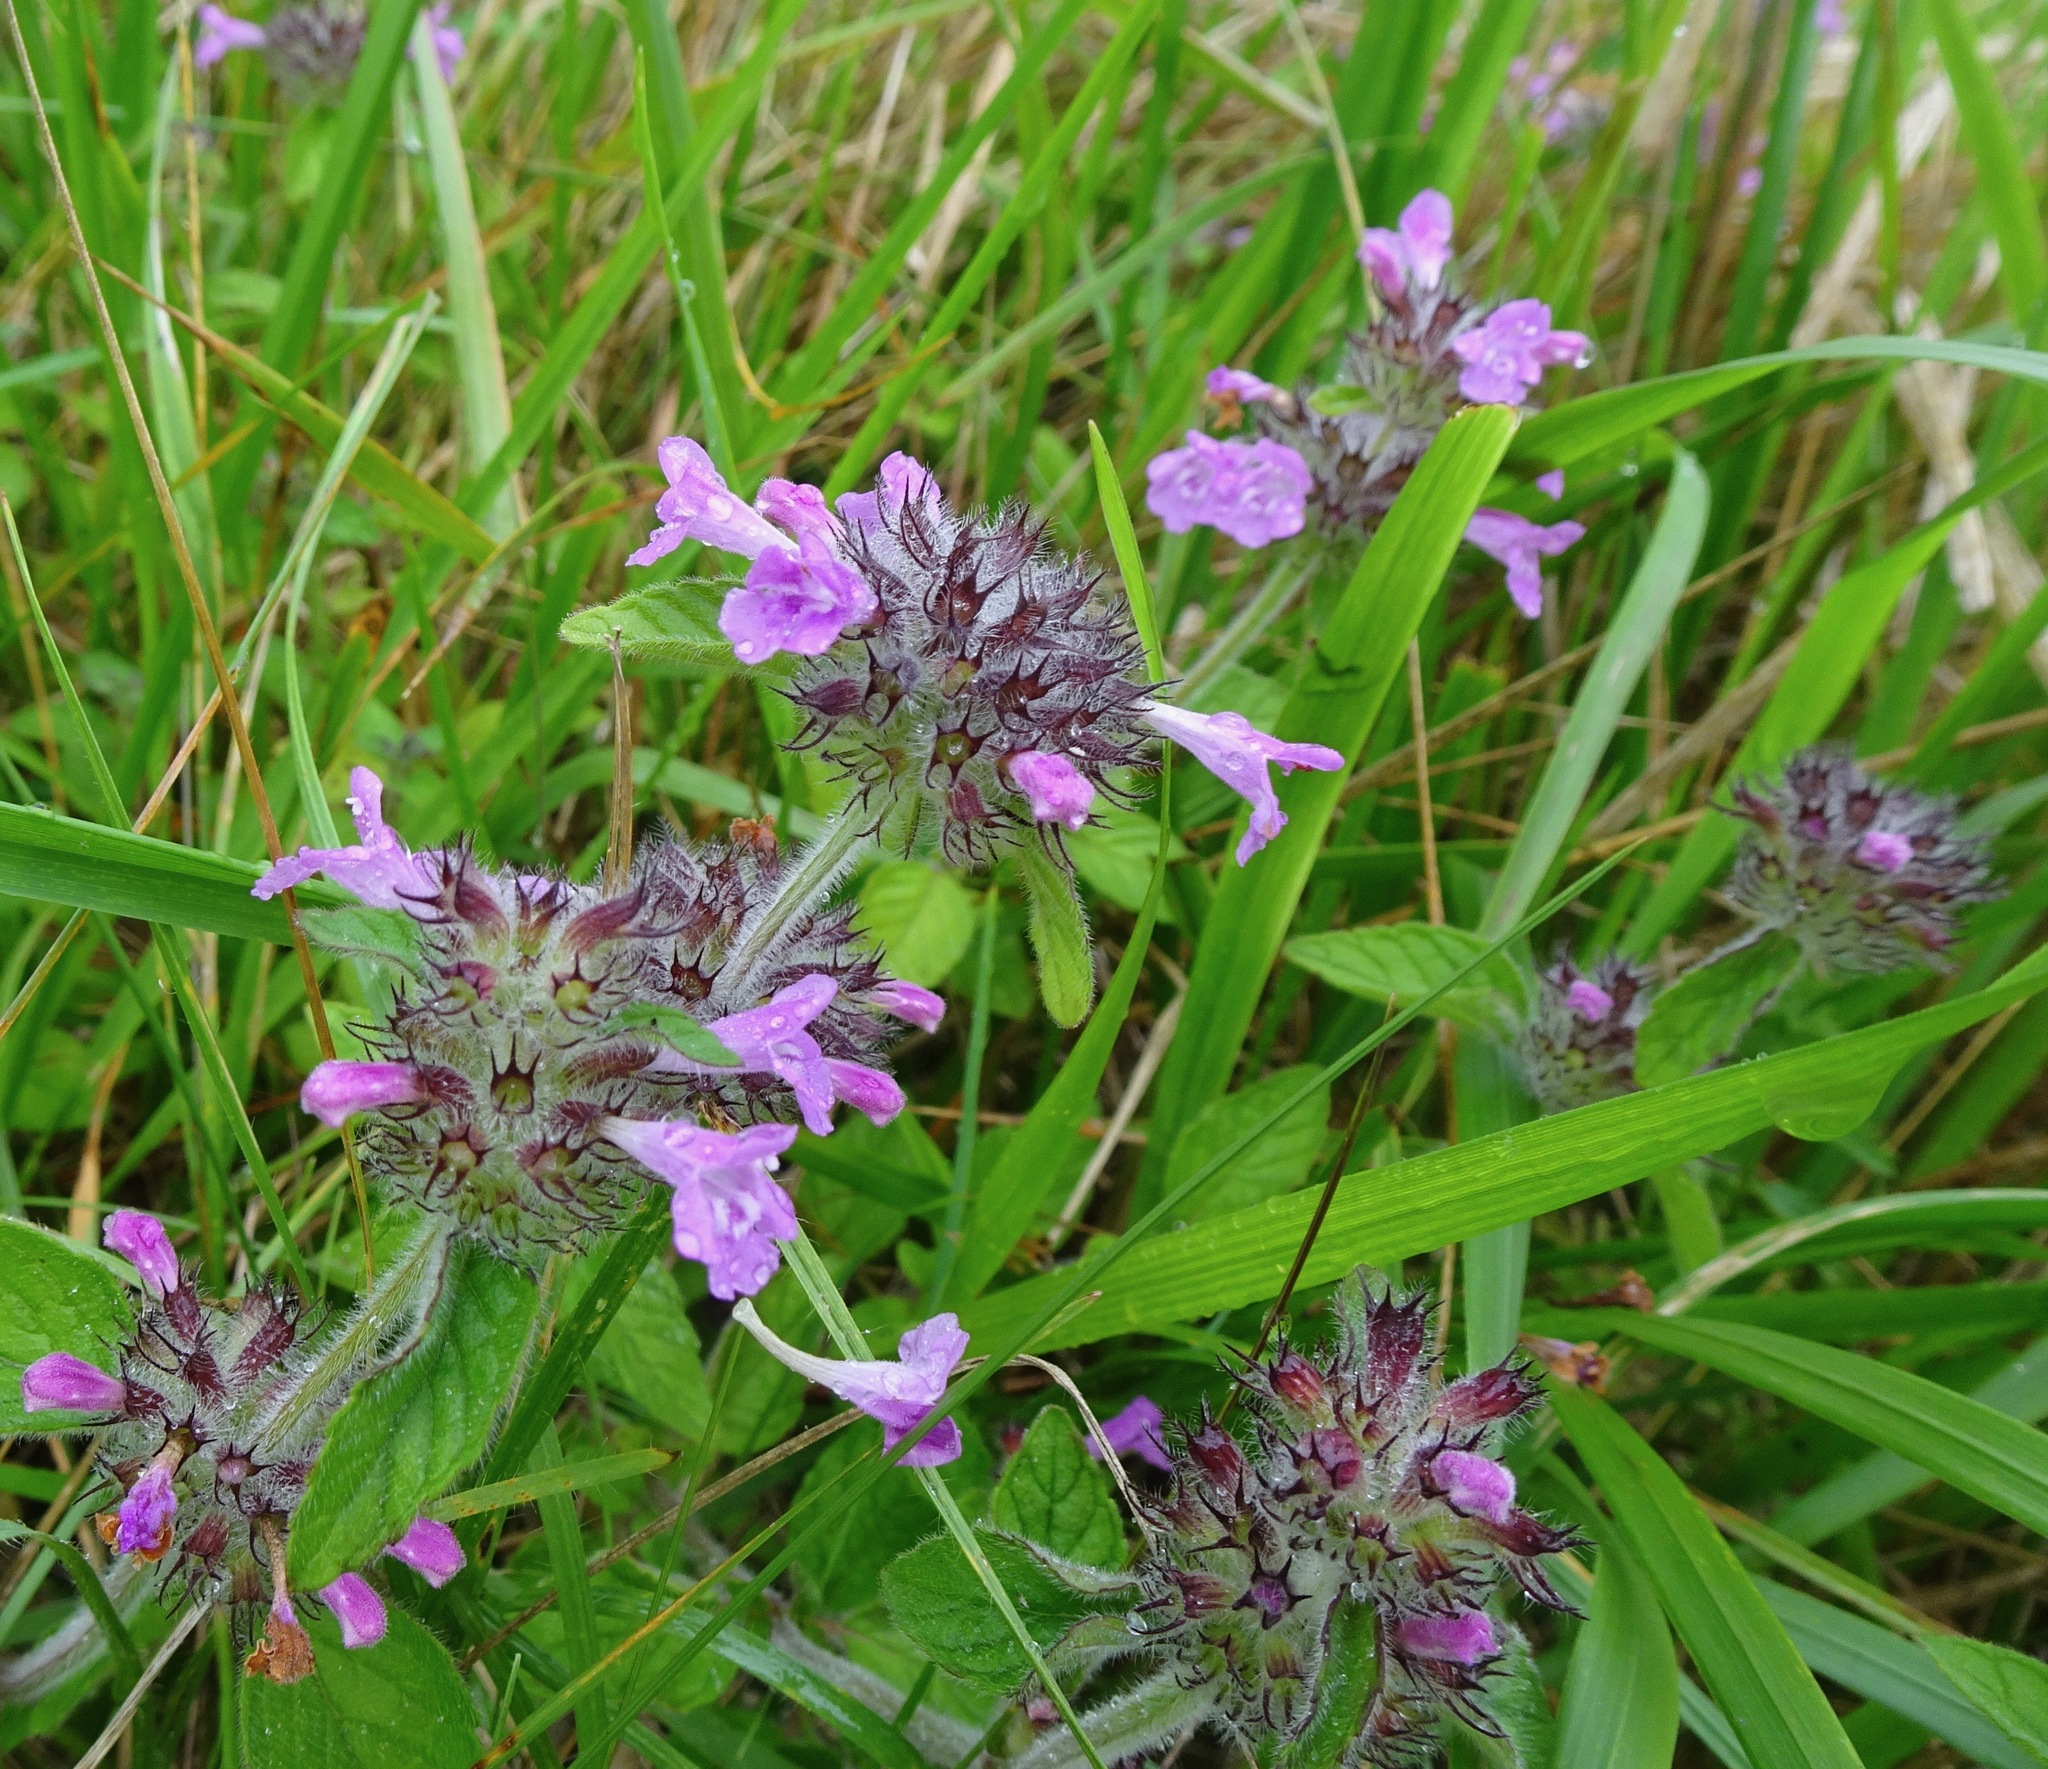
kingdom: Plantae
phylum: Tracheophyta
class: Magnoliopsida
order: Lamiales
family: Lamiaceae
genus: Clinopodium
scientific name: Clinopodium vulgare
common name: Wild basil
